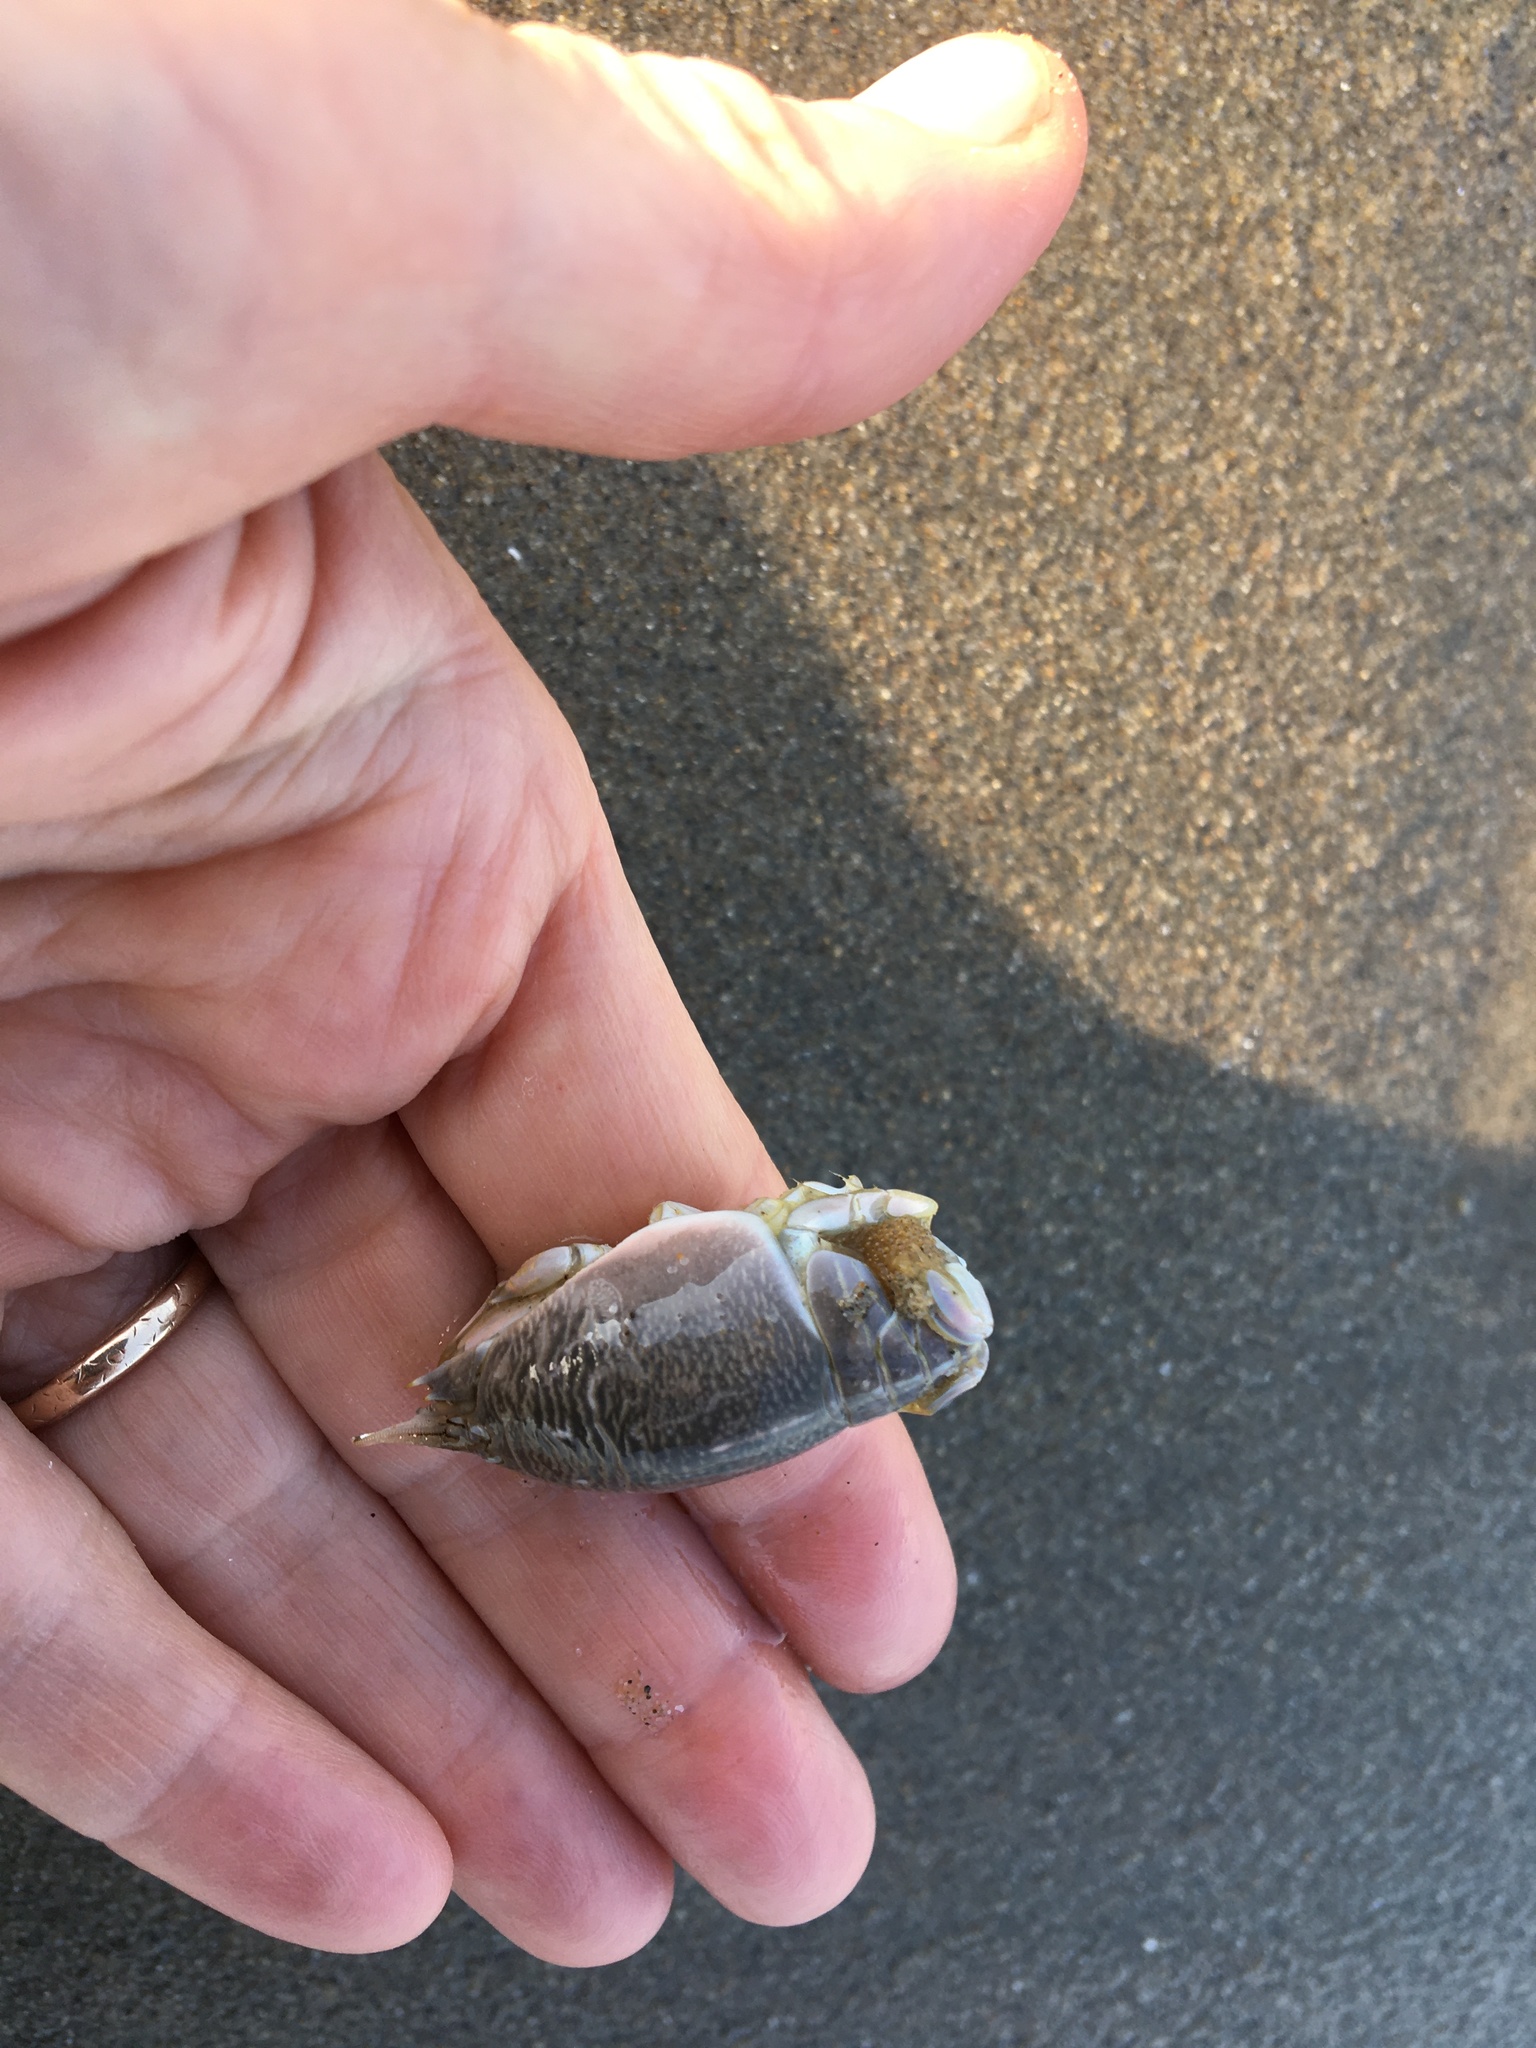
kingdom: Animalia
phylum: Arthropoda
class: Malacostraca
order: Decapoda
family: Hippidae
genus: Emerita
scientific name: Emerita analoga
